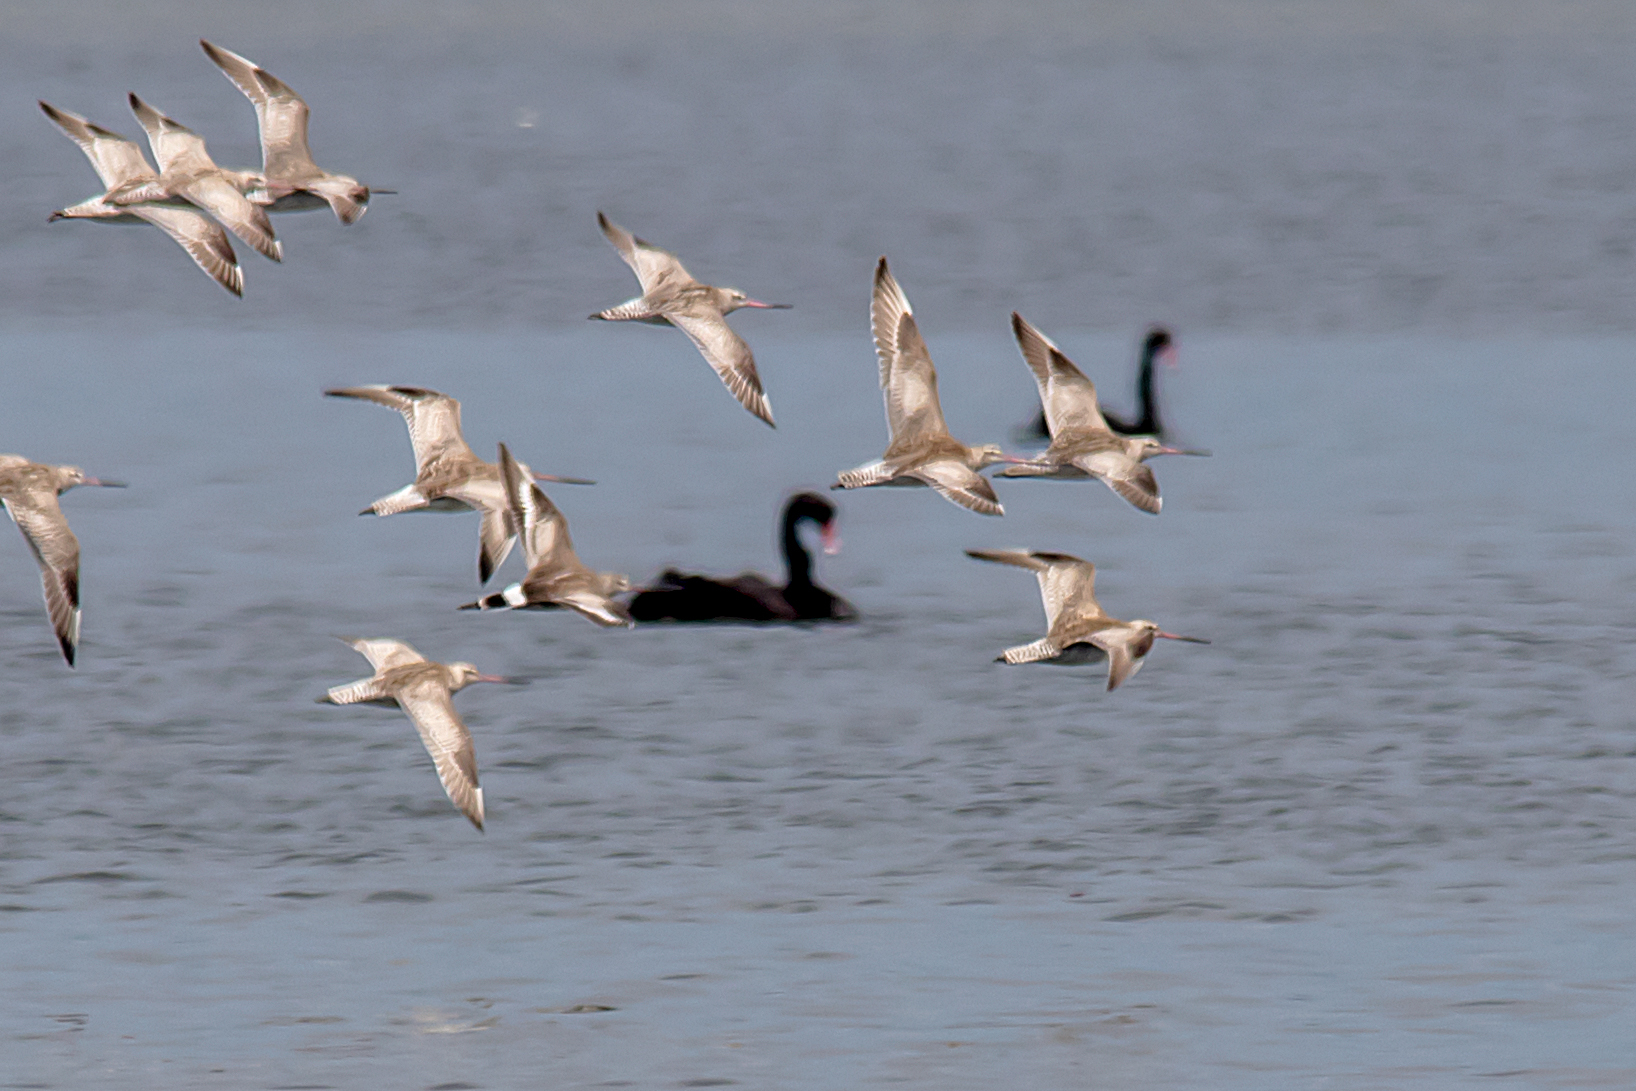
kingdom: Animalia
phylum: Chordata
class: Aves
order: Charadriiformes
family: Scolopacidae
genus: Limosa
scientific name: Limosa haemastica
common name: Hudsonian godwit
